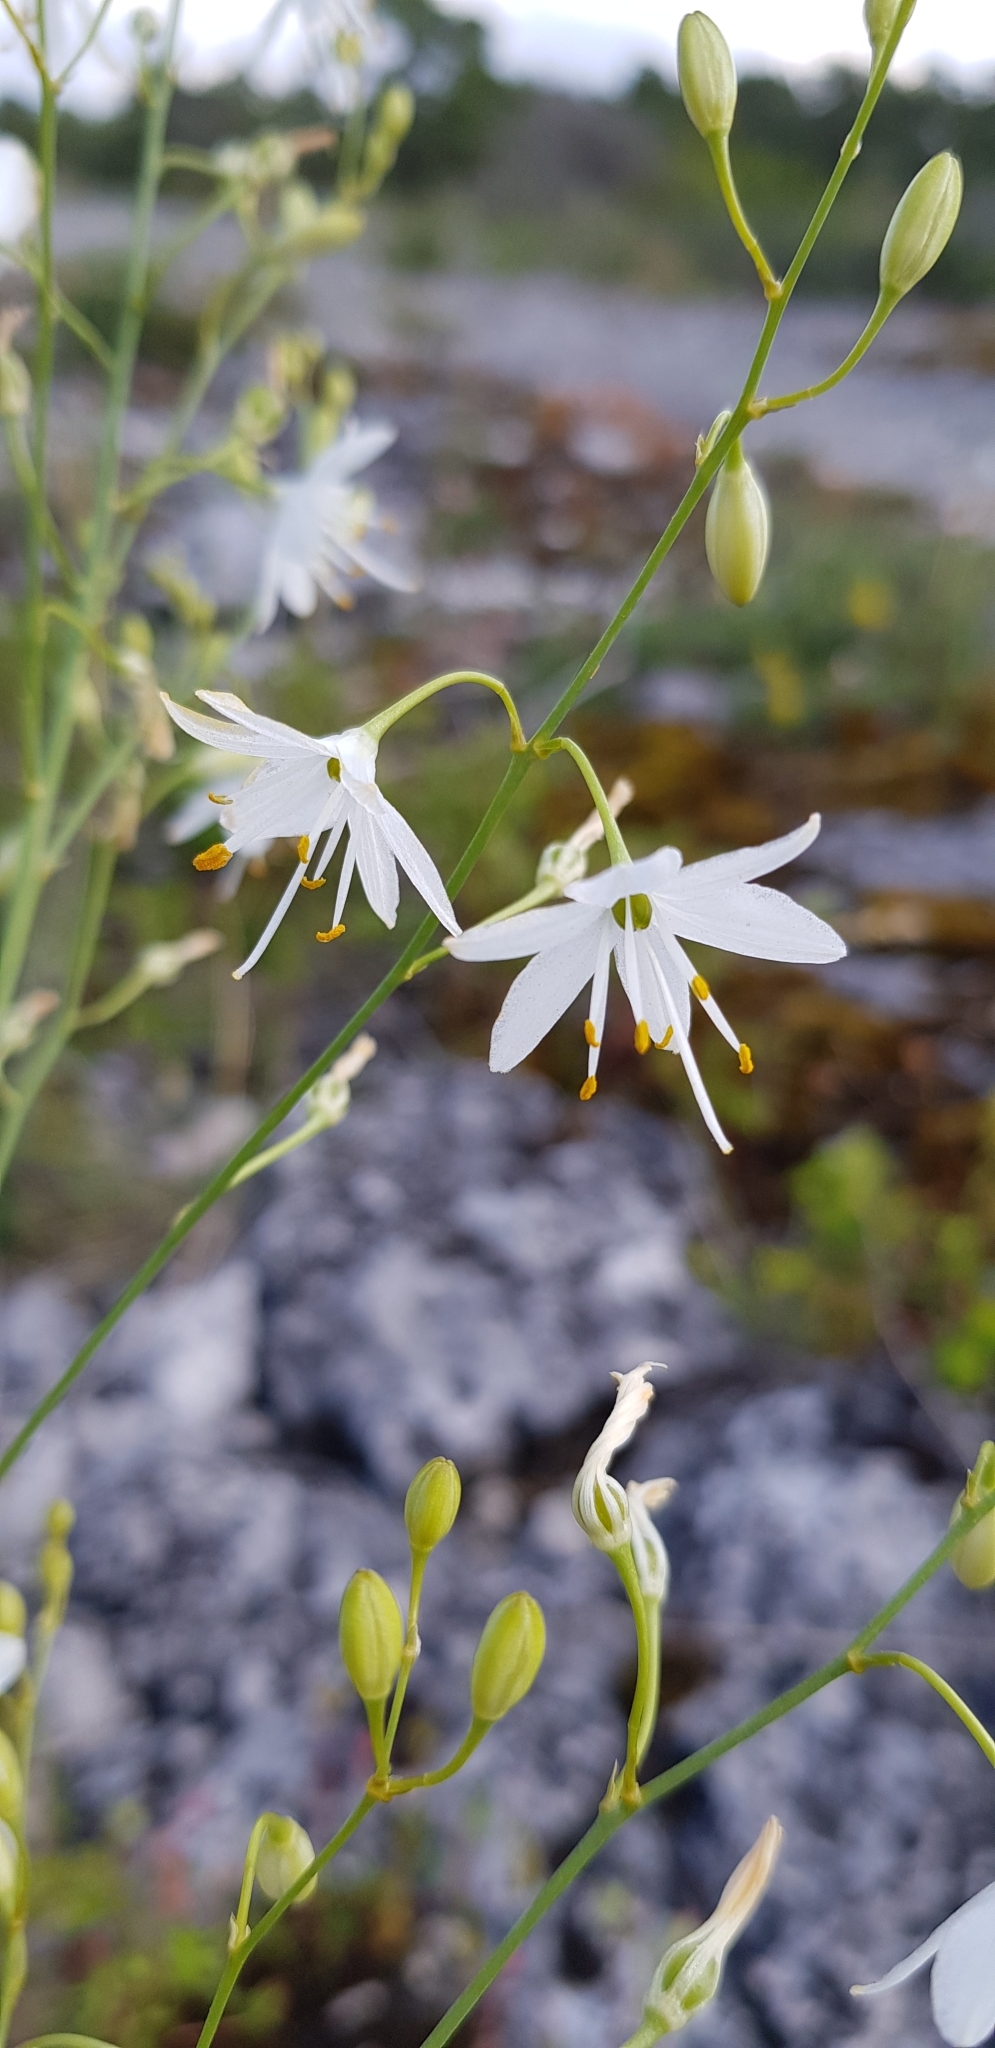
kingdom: Plantae
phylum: Tracheophyta
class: Liliopsida
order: Asparagales
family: Asparagaceae
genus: Anthericum
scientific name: Anthericum ramosum
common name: Branched st. bernard's-lily
